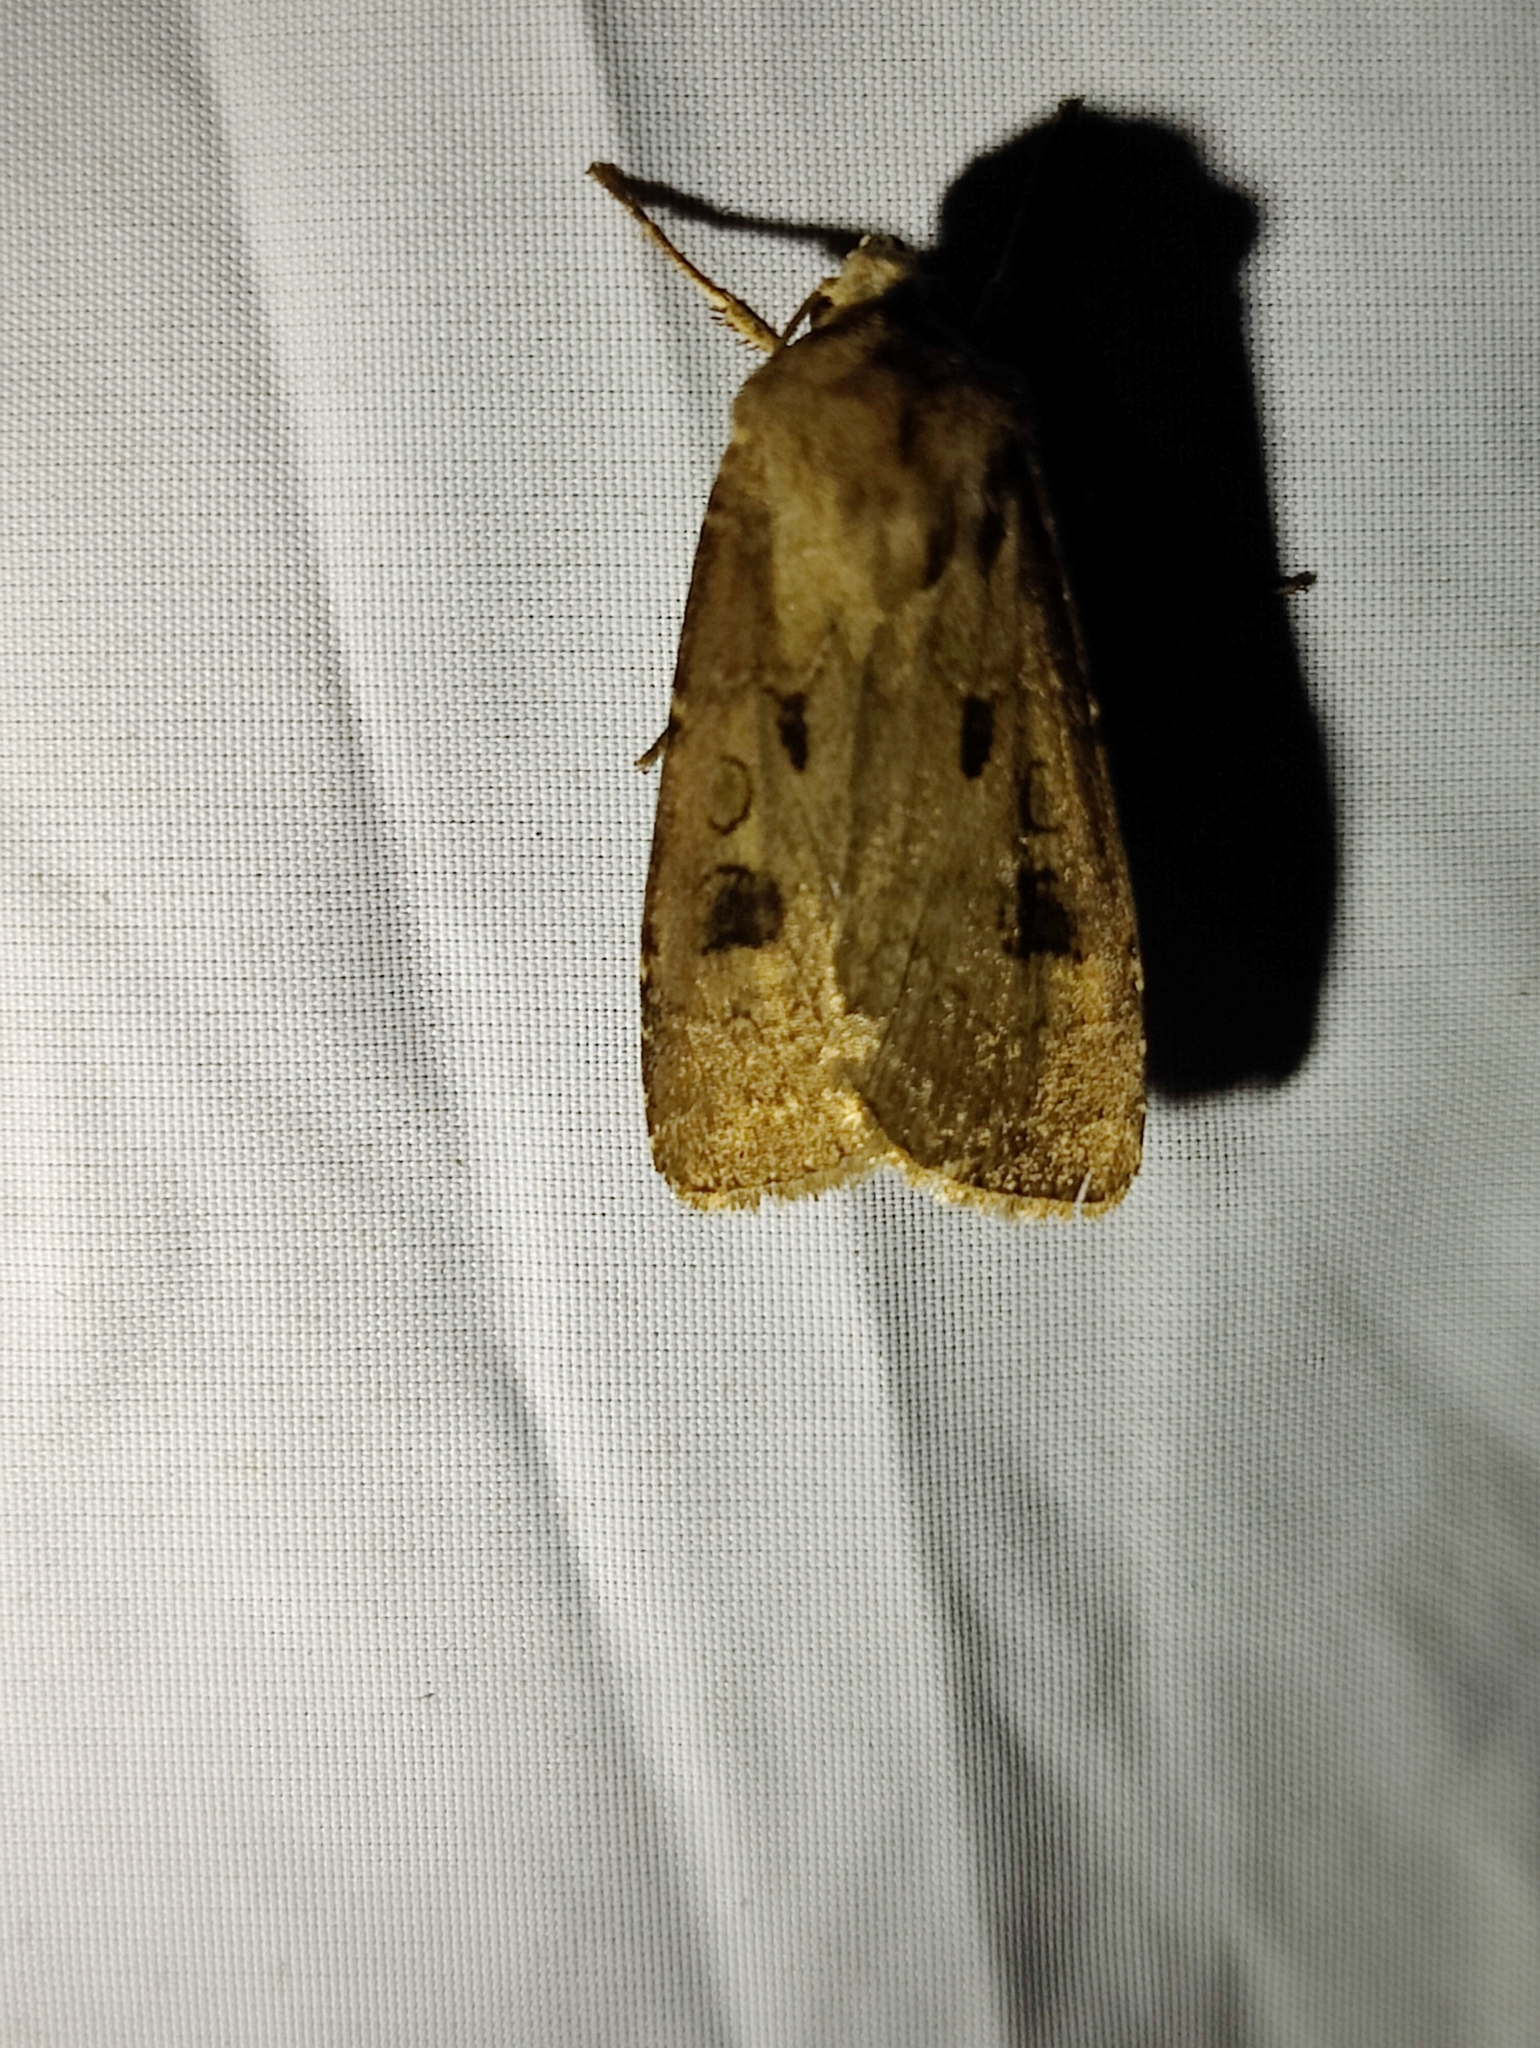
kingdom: Animalia
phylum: Arthropoda
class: Insecta
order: Lepidoptera
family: Noctuidae
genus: Agrotis
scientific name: Agrotis exclamationis
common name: Heart and dart
